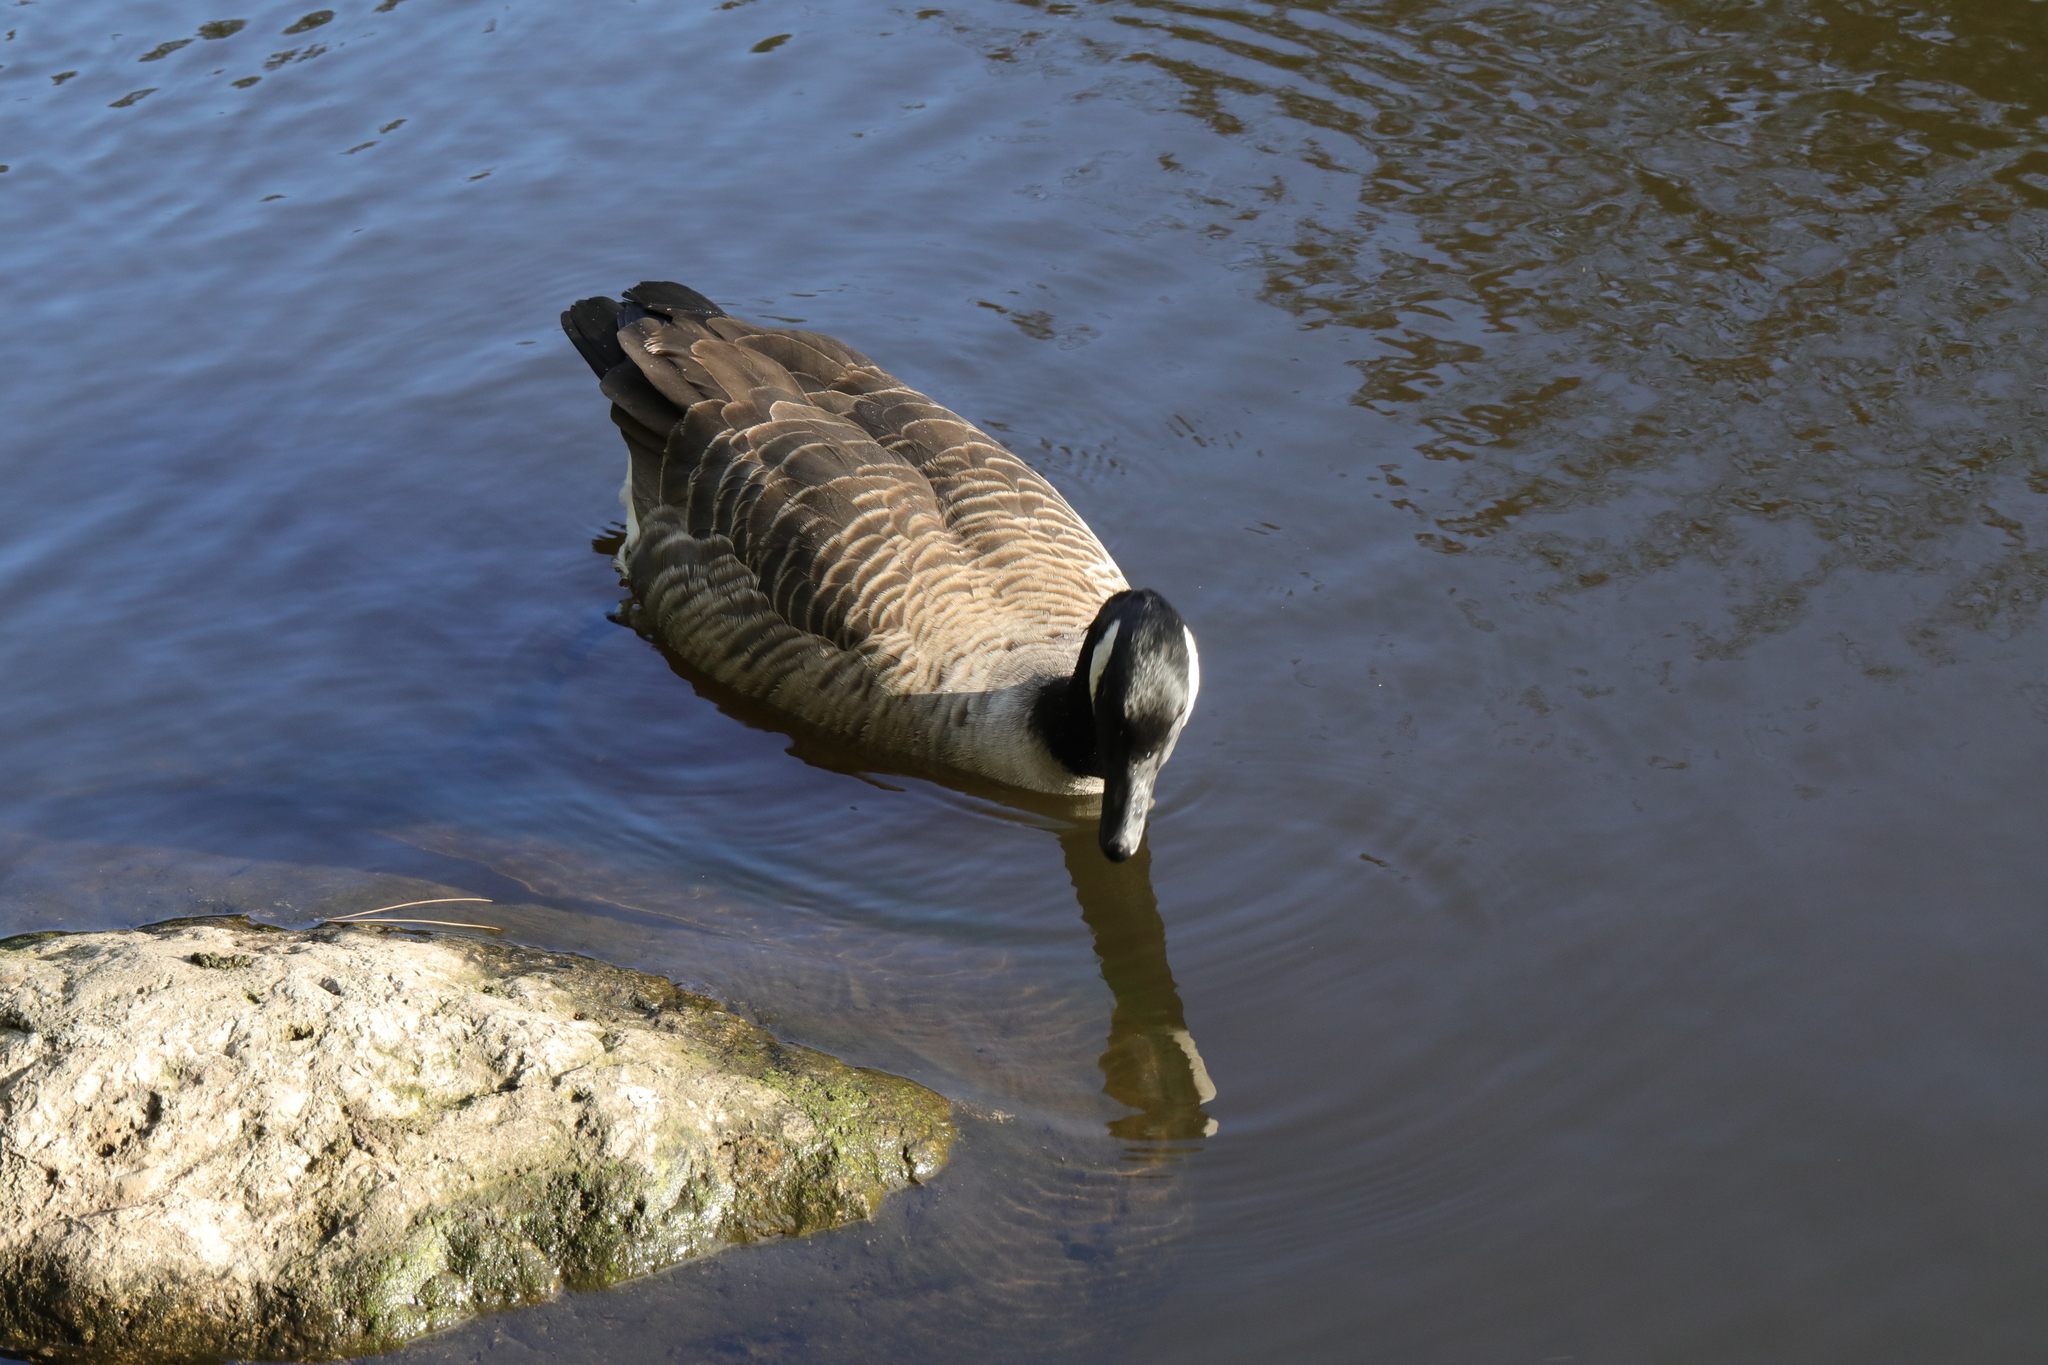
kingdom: Animalia
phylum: Chordata
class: Aves
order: Anseriformes
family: Anatidae
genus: Branta
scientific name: Branta canadensis
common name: Canada goose
